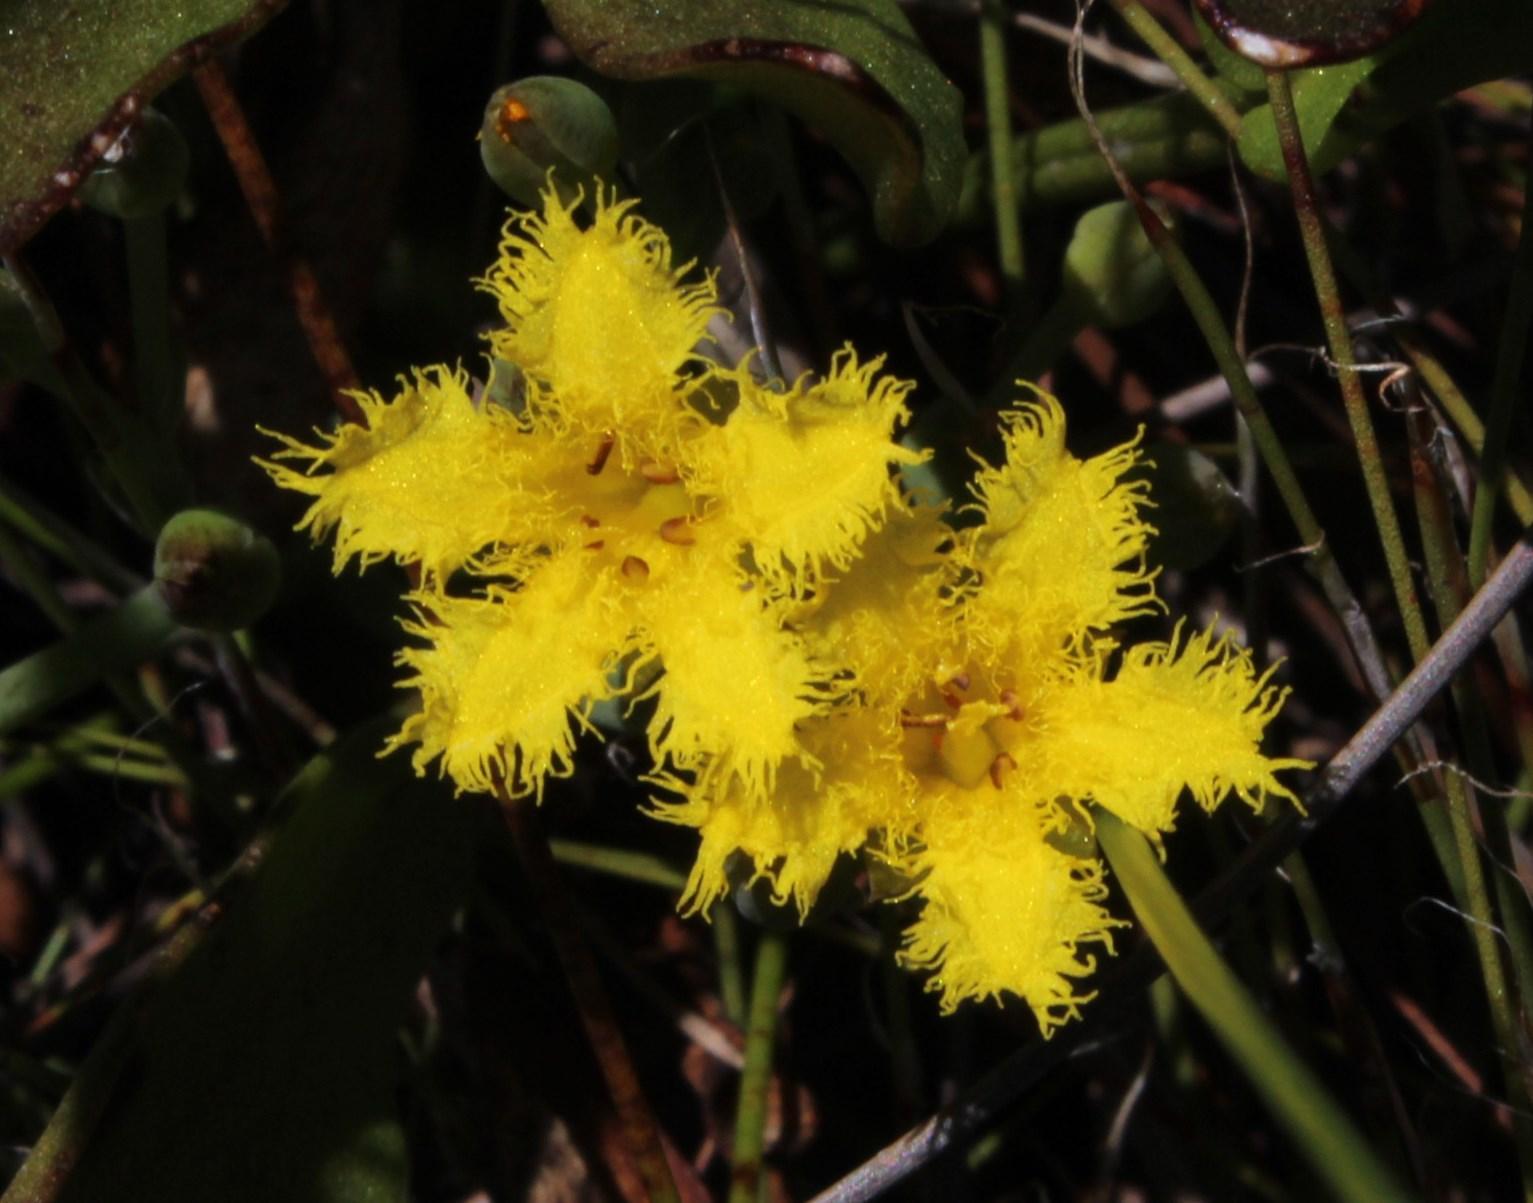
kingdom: Plantae
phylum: Tracheophyta
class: Magnoliopsida
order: Asterales
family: Menyanthaceae
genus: Villarsia
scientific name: Villarsia manningiana
